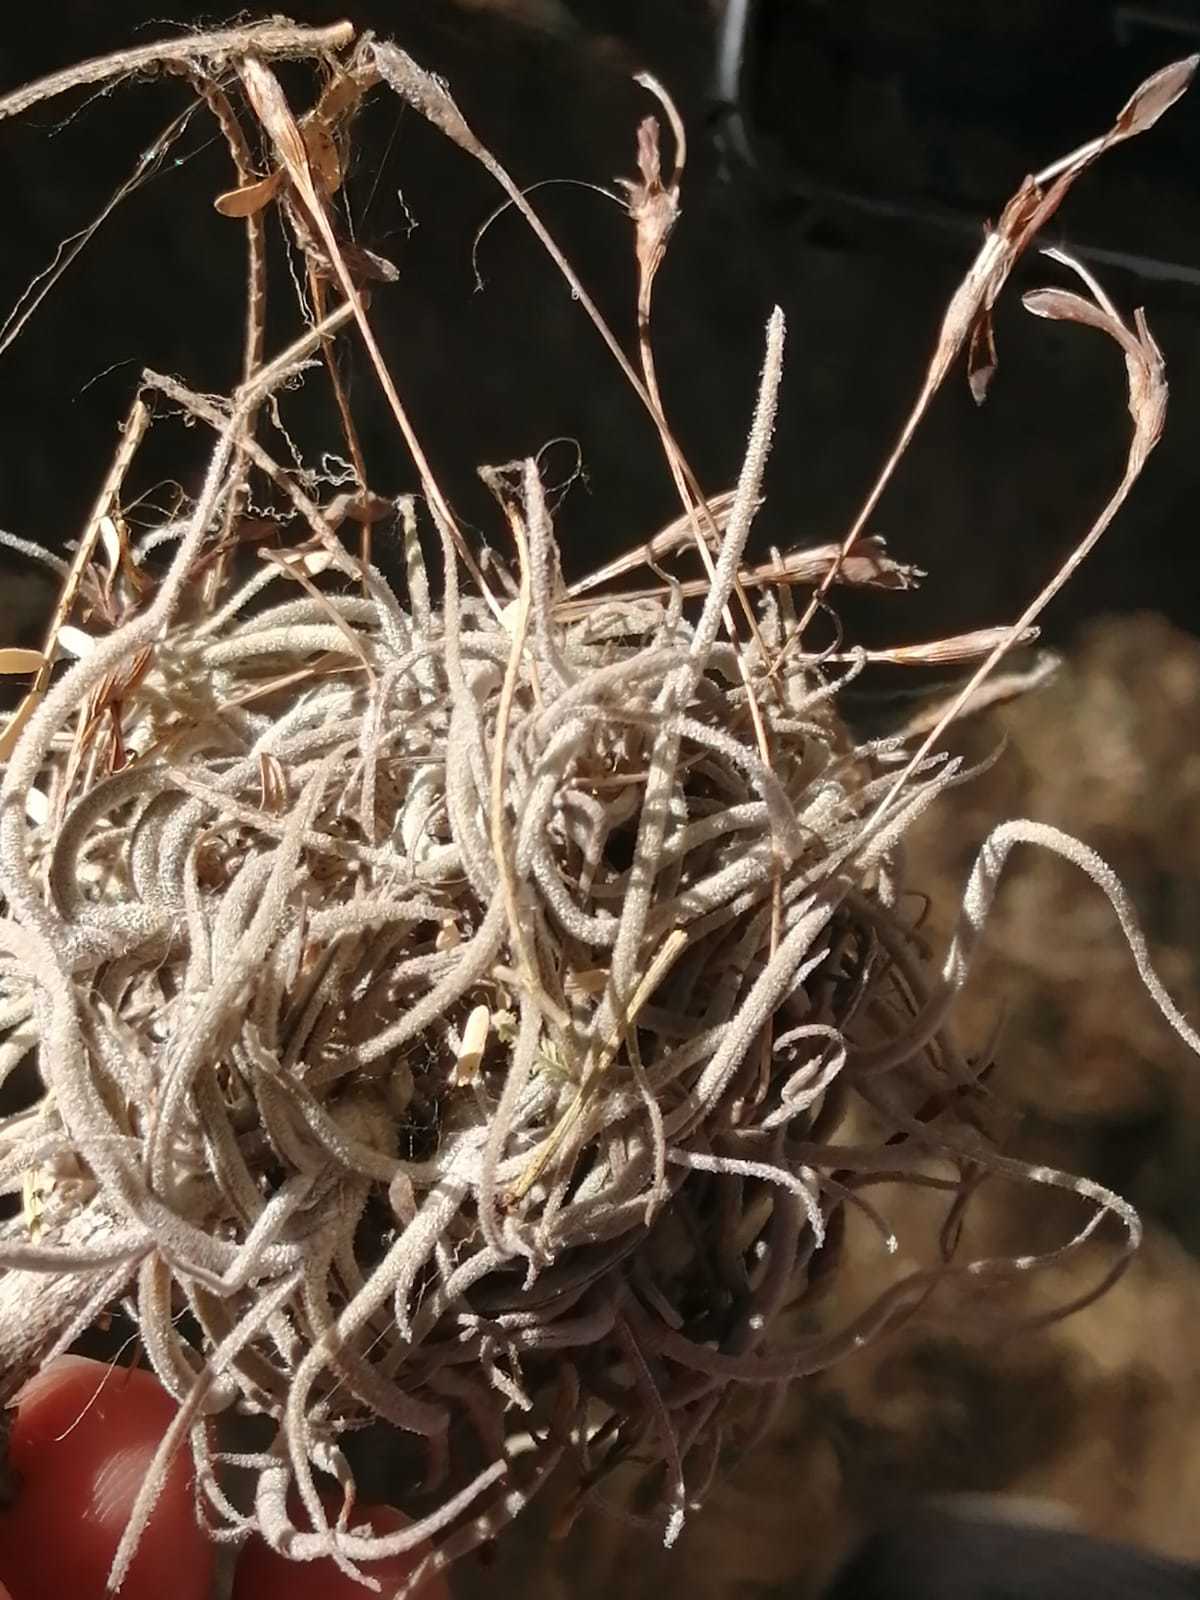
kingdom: Plantae
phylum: Tracheophyta
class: Liliopsida
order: Poales
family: Bromeliaceae
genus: Tillandsia
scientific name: Tillandsia recurvata
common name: Small ballmoss
